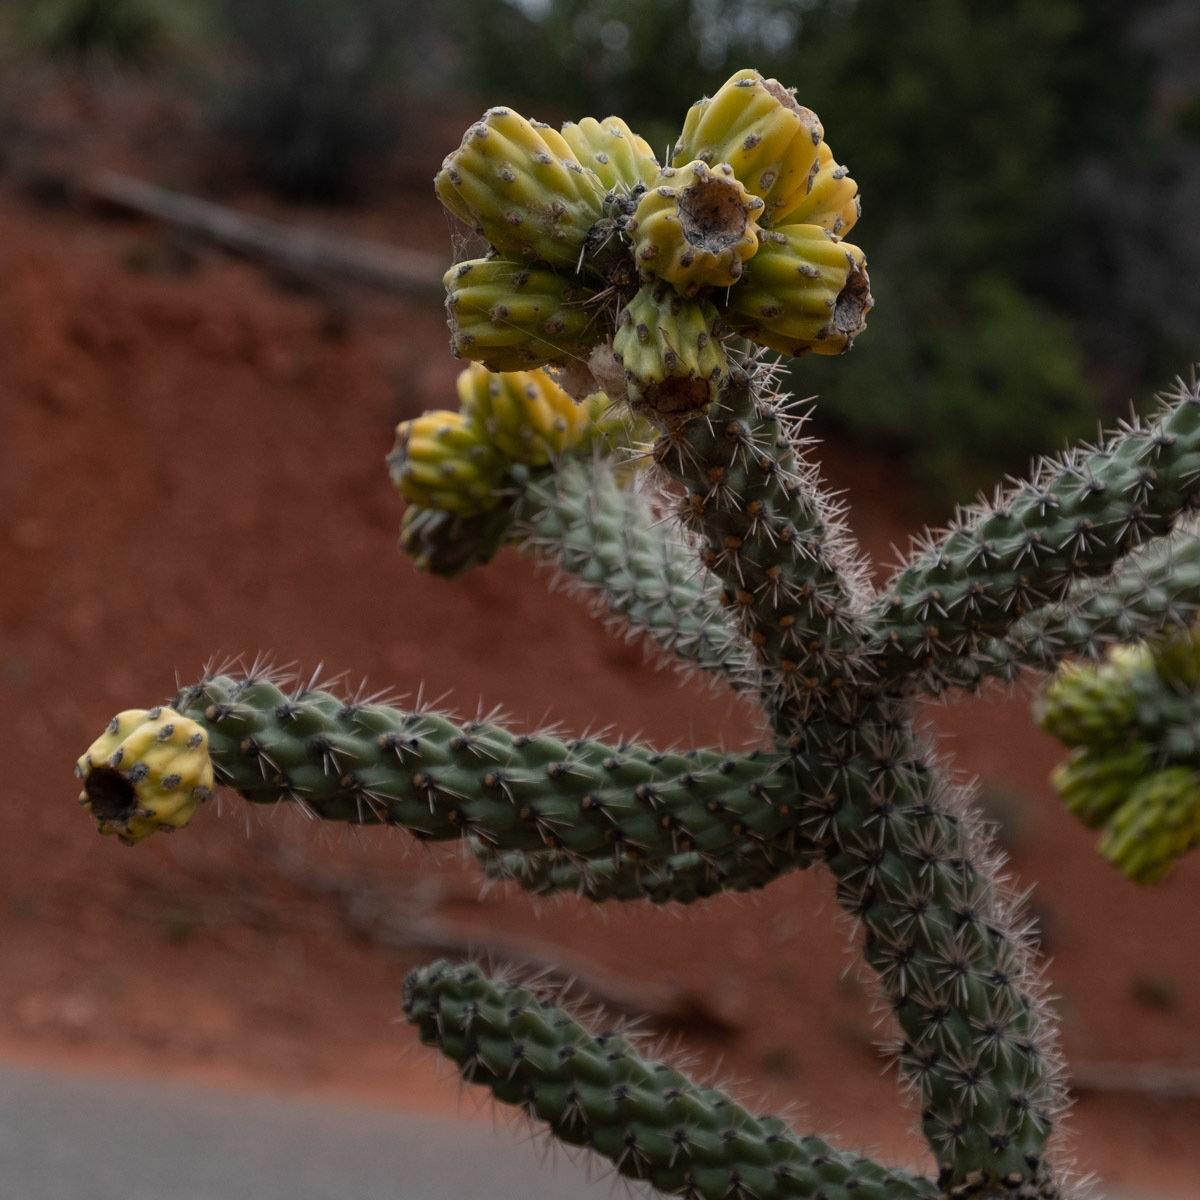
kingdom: Plantae
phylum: Tracheophyta
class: Magnoliopsida
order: Caryophyllales
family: Cactaceae
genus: Cylindropuntia
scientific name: Cylindropuntia imbricata
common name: Candelabrum cactus
